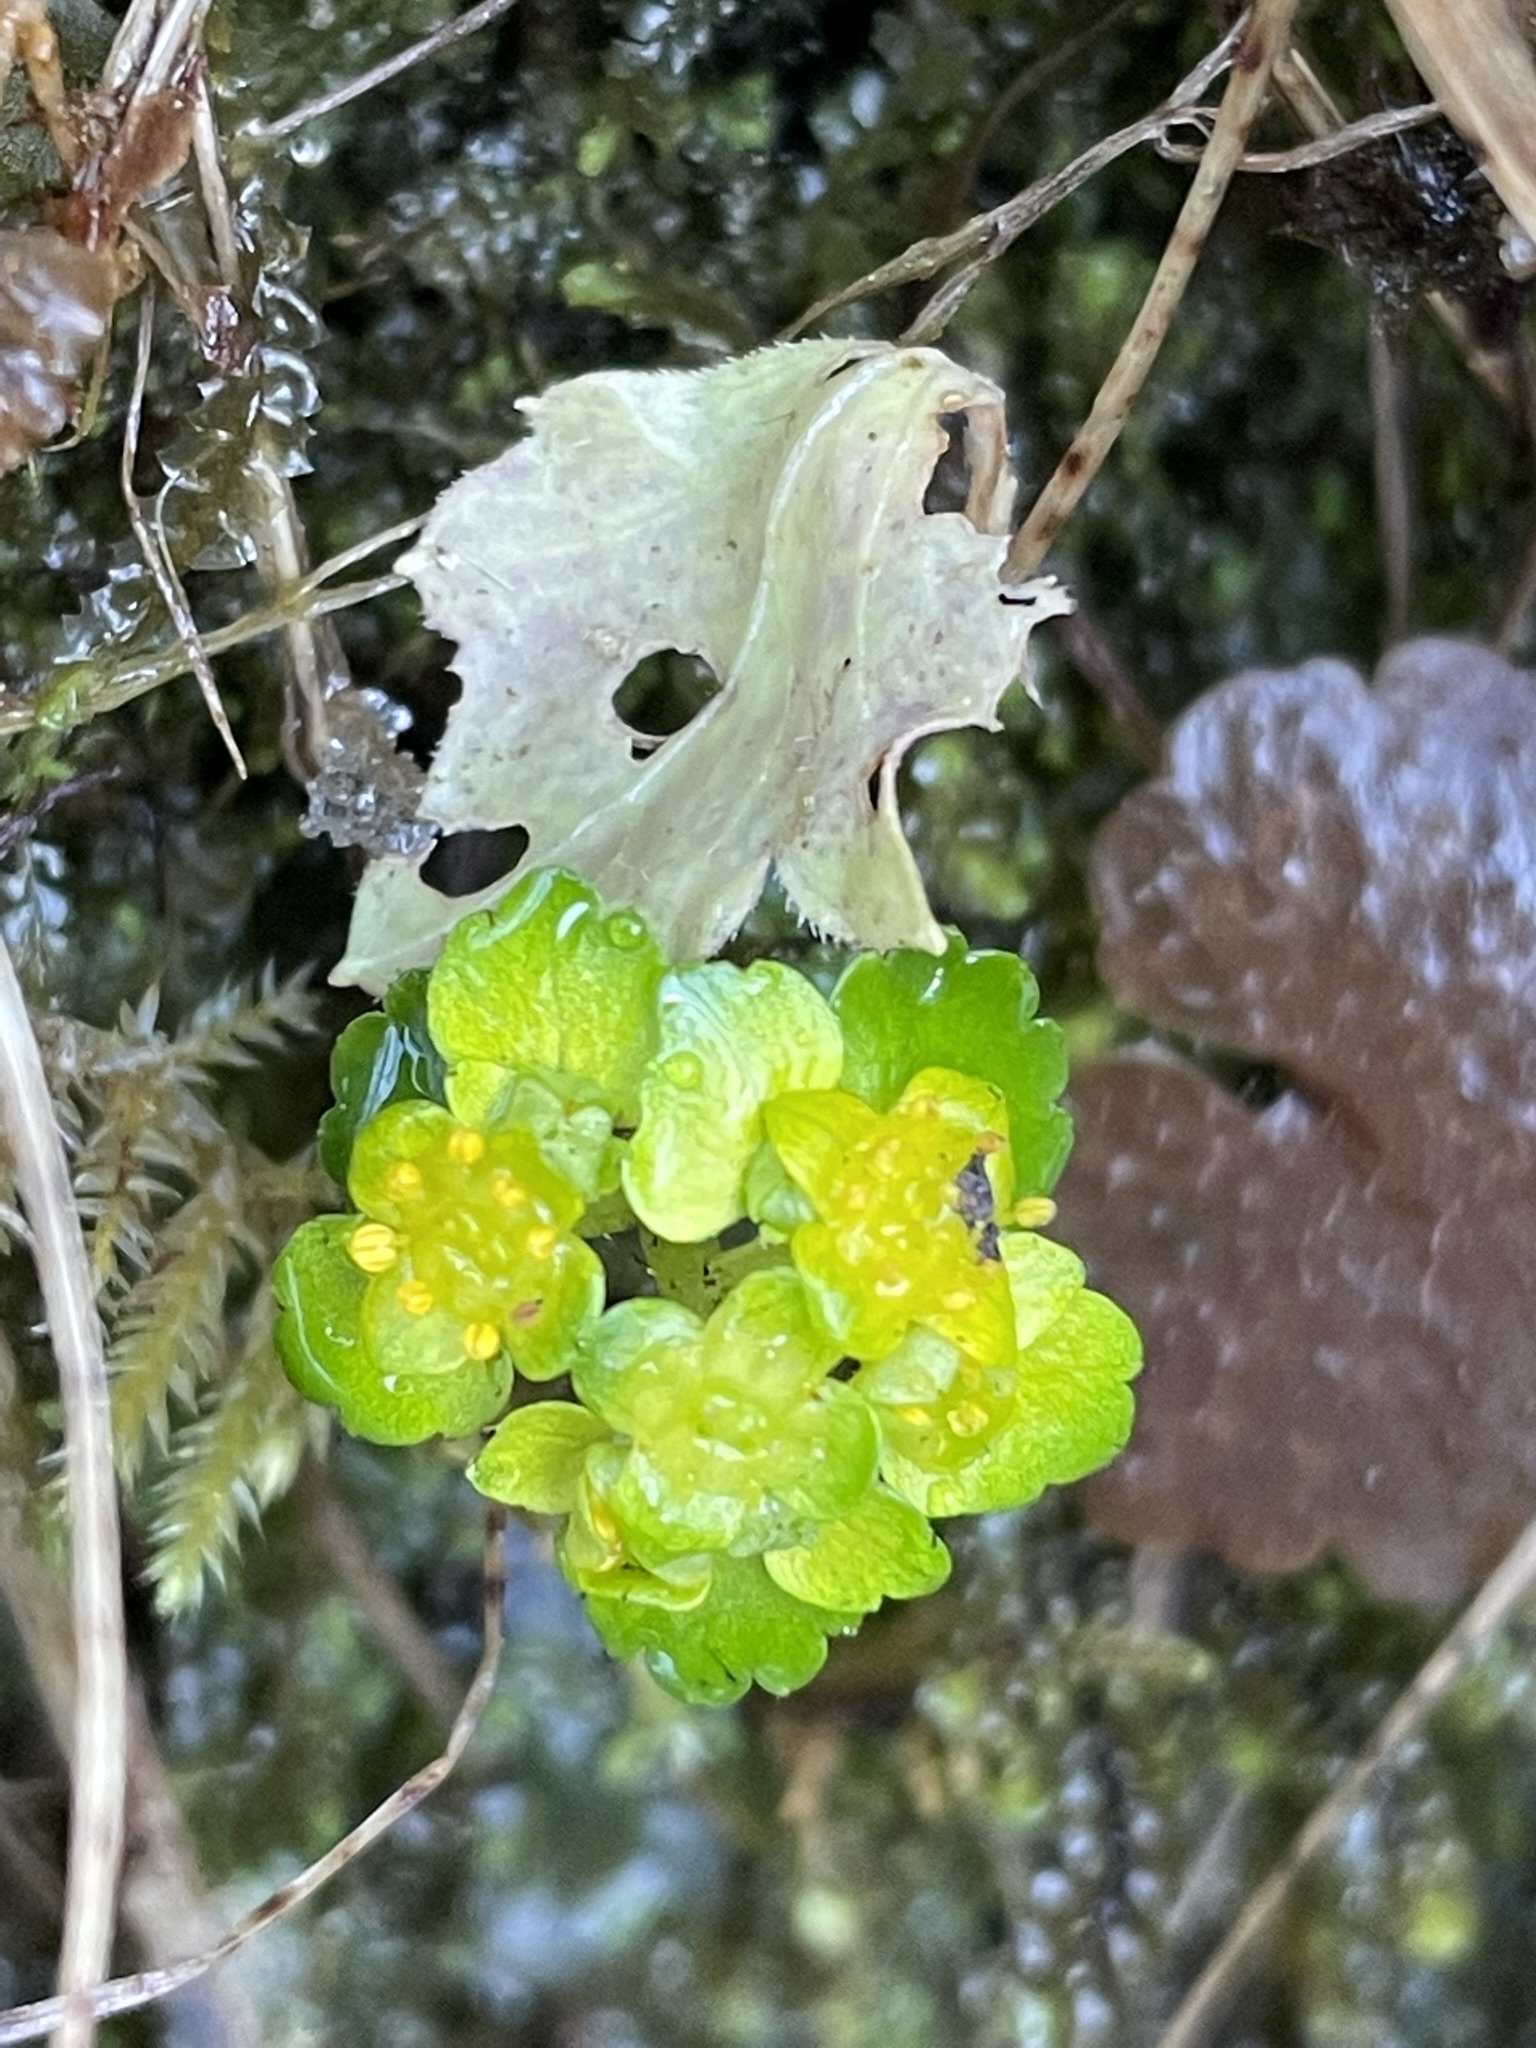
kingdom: Plantae
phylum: Tracheophyta
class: Magnoliopsida
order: Saxifragales
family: Saxifragaceae
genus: Chrysosplenium
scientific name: Chrysosplenium alternifolium
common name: Alternate-leaved golden-saxifrage
